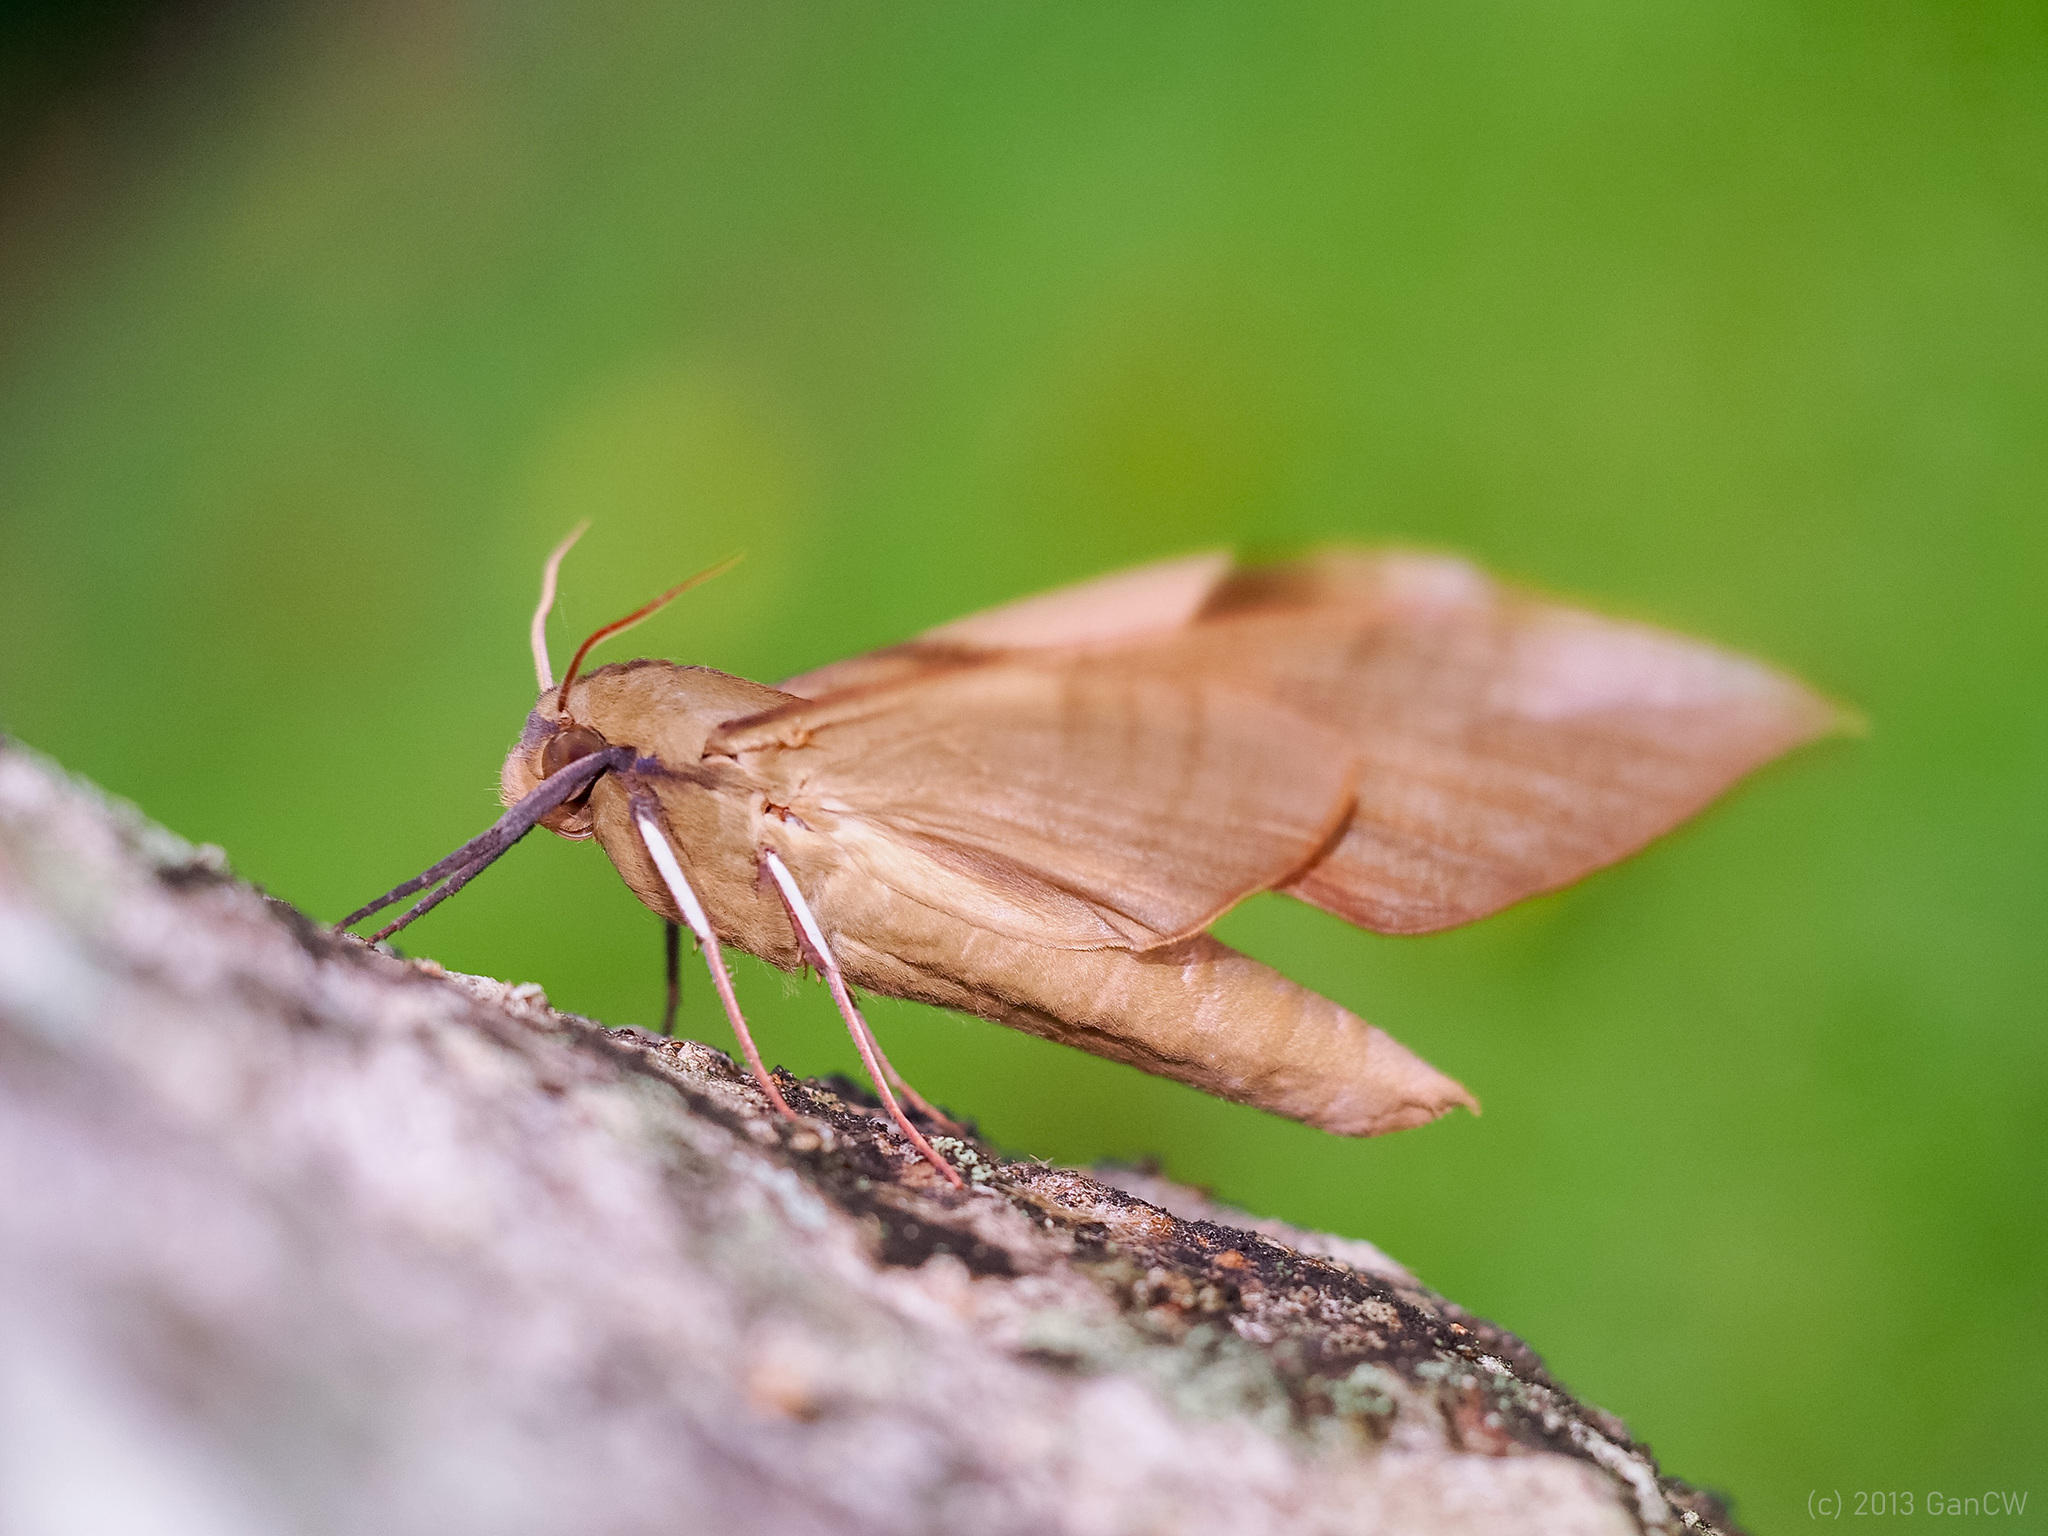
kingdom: Animalia
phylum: Arthropoda
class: Insecta
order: Lepidoptera
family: Sphingidae
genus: Clanis
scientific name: Clanis stenosema
